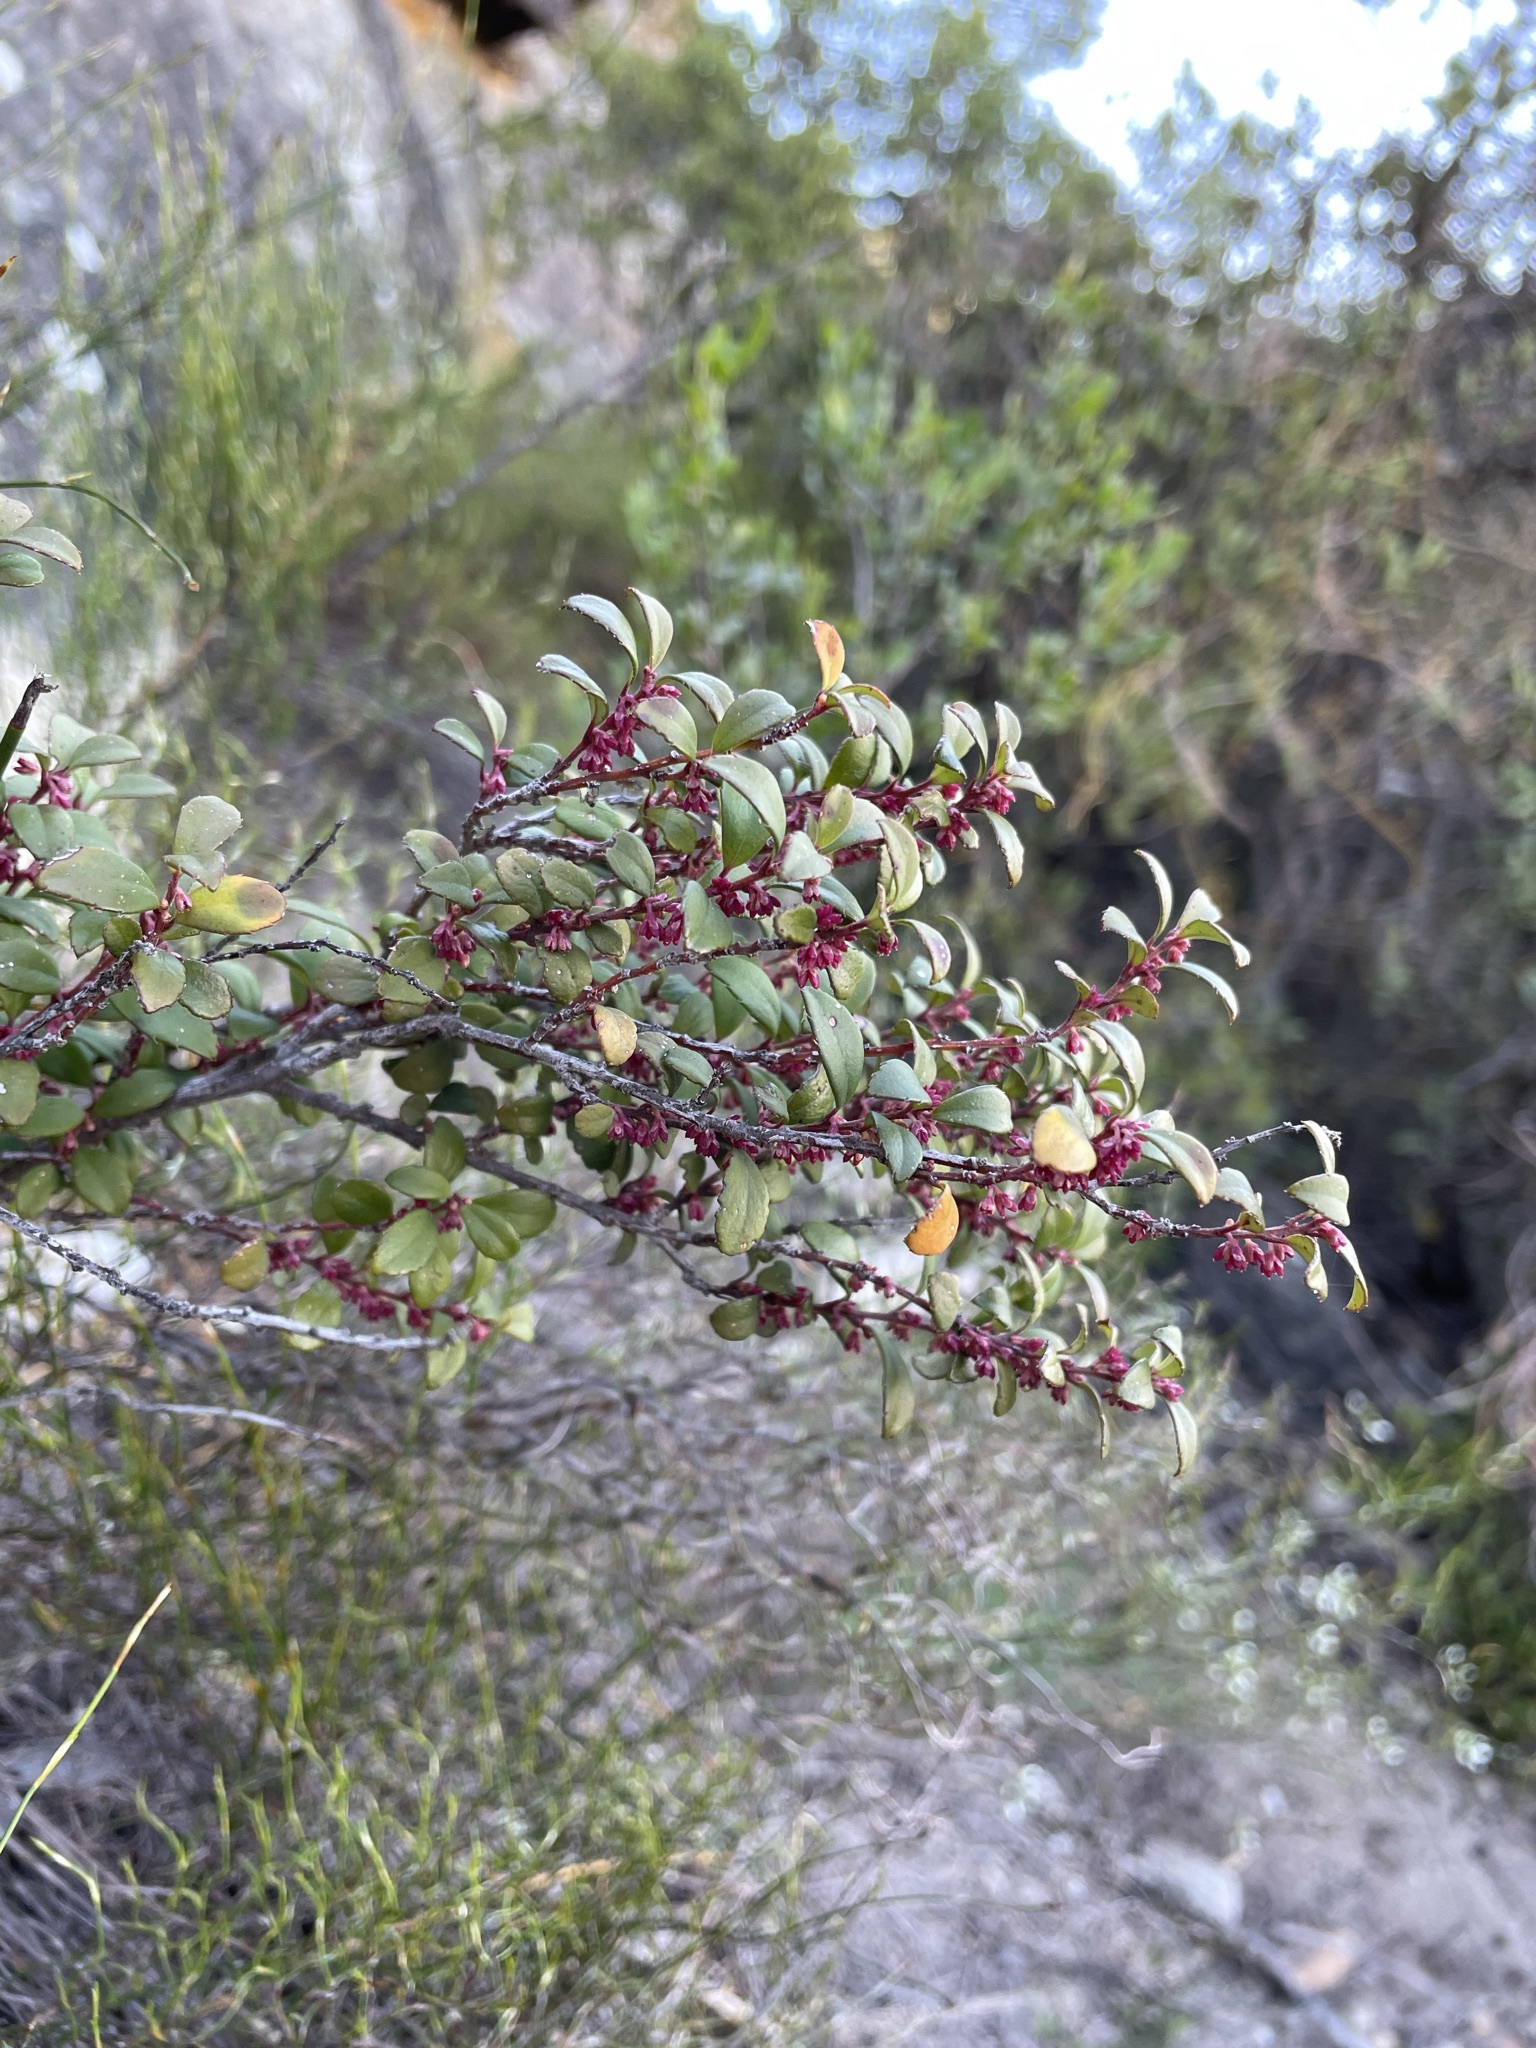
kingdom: Plantae
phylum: Tracheophyta
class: Magnoliopsida
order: Ericales
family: Primulaceae
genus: Myrsine
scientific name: Myrsine africana
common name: African-boxwood
